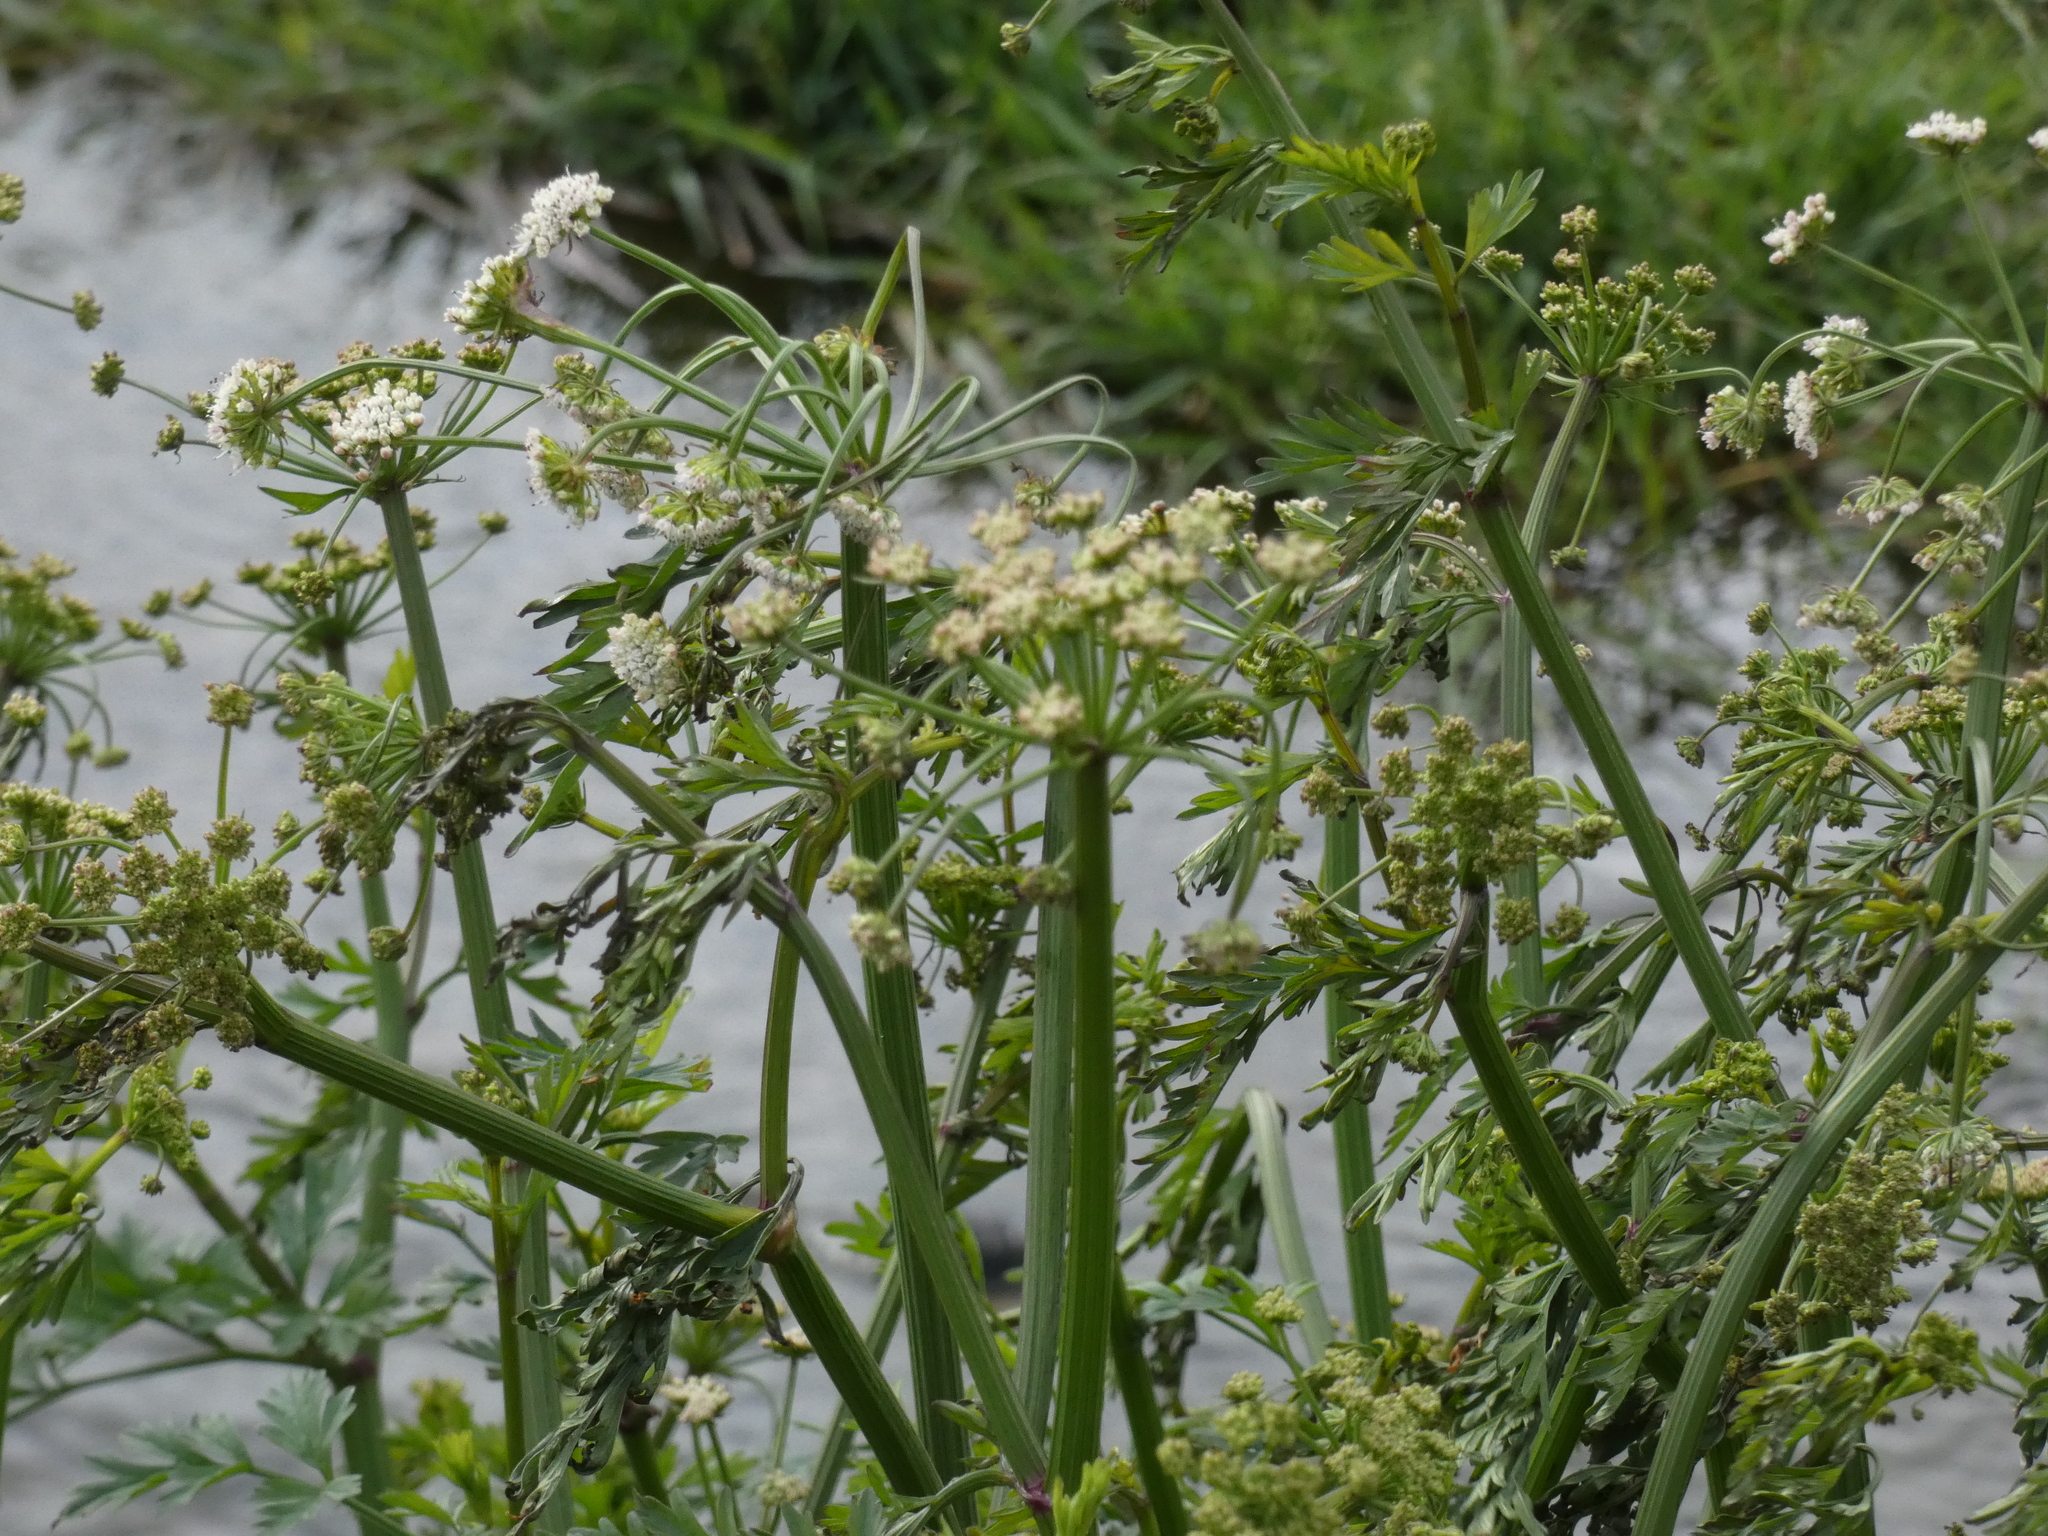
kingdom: Plantae
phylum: Tracheophyta
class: Magnoliopsida
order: Apiales
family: Apiaceae
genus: Oenanthe
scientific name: Oenanthe crocata
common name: Hemlock water-dropwort
